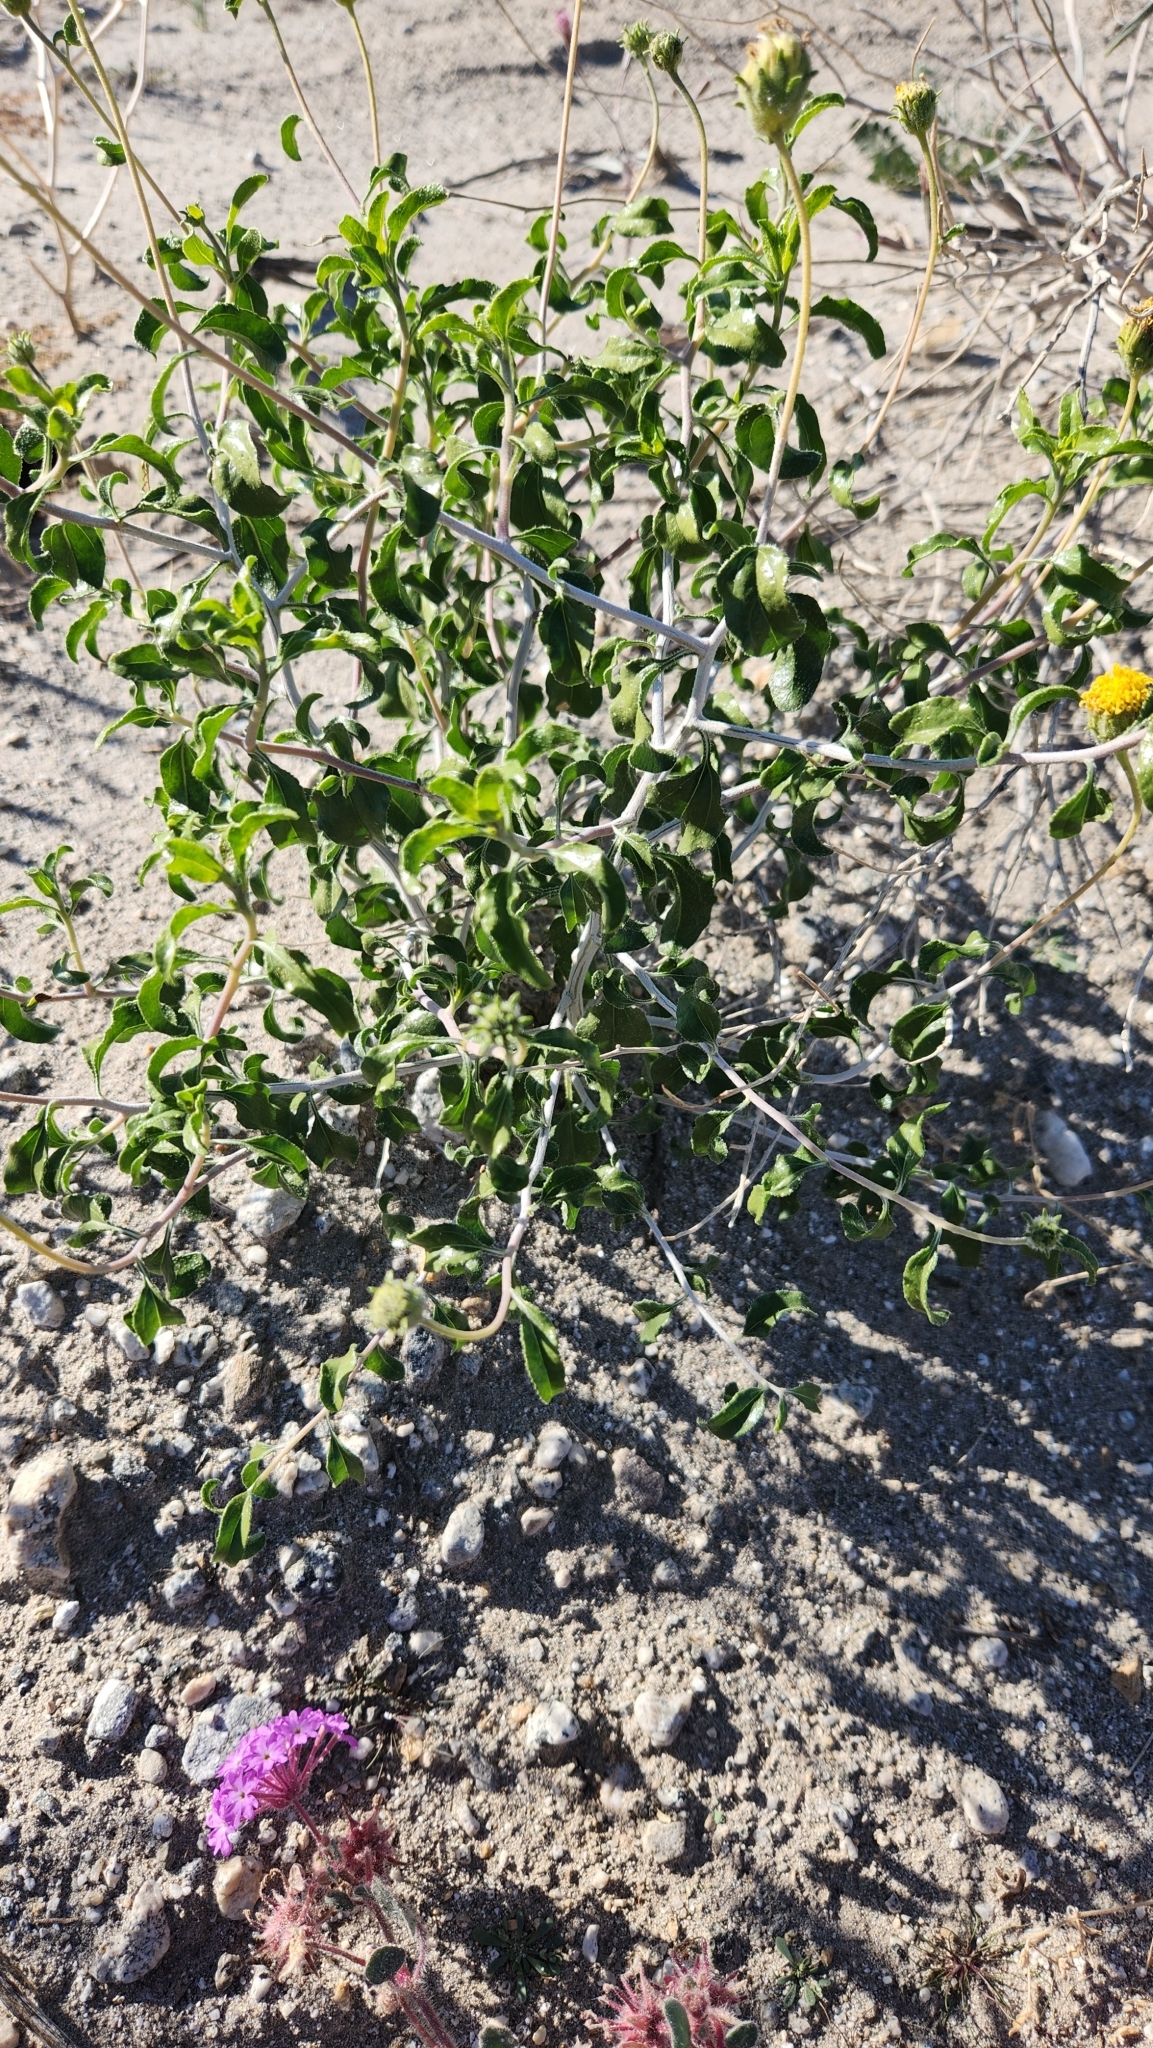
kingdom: Plantae
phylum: Tracheophyta
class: Magnoliopsida
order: Asterales
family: Asteraceae
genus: Encelia
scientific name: Encelia frutescens
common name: Bush encelia
